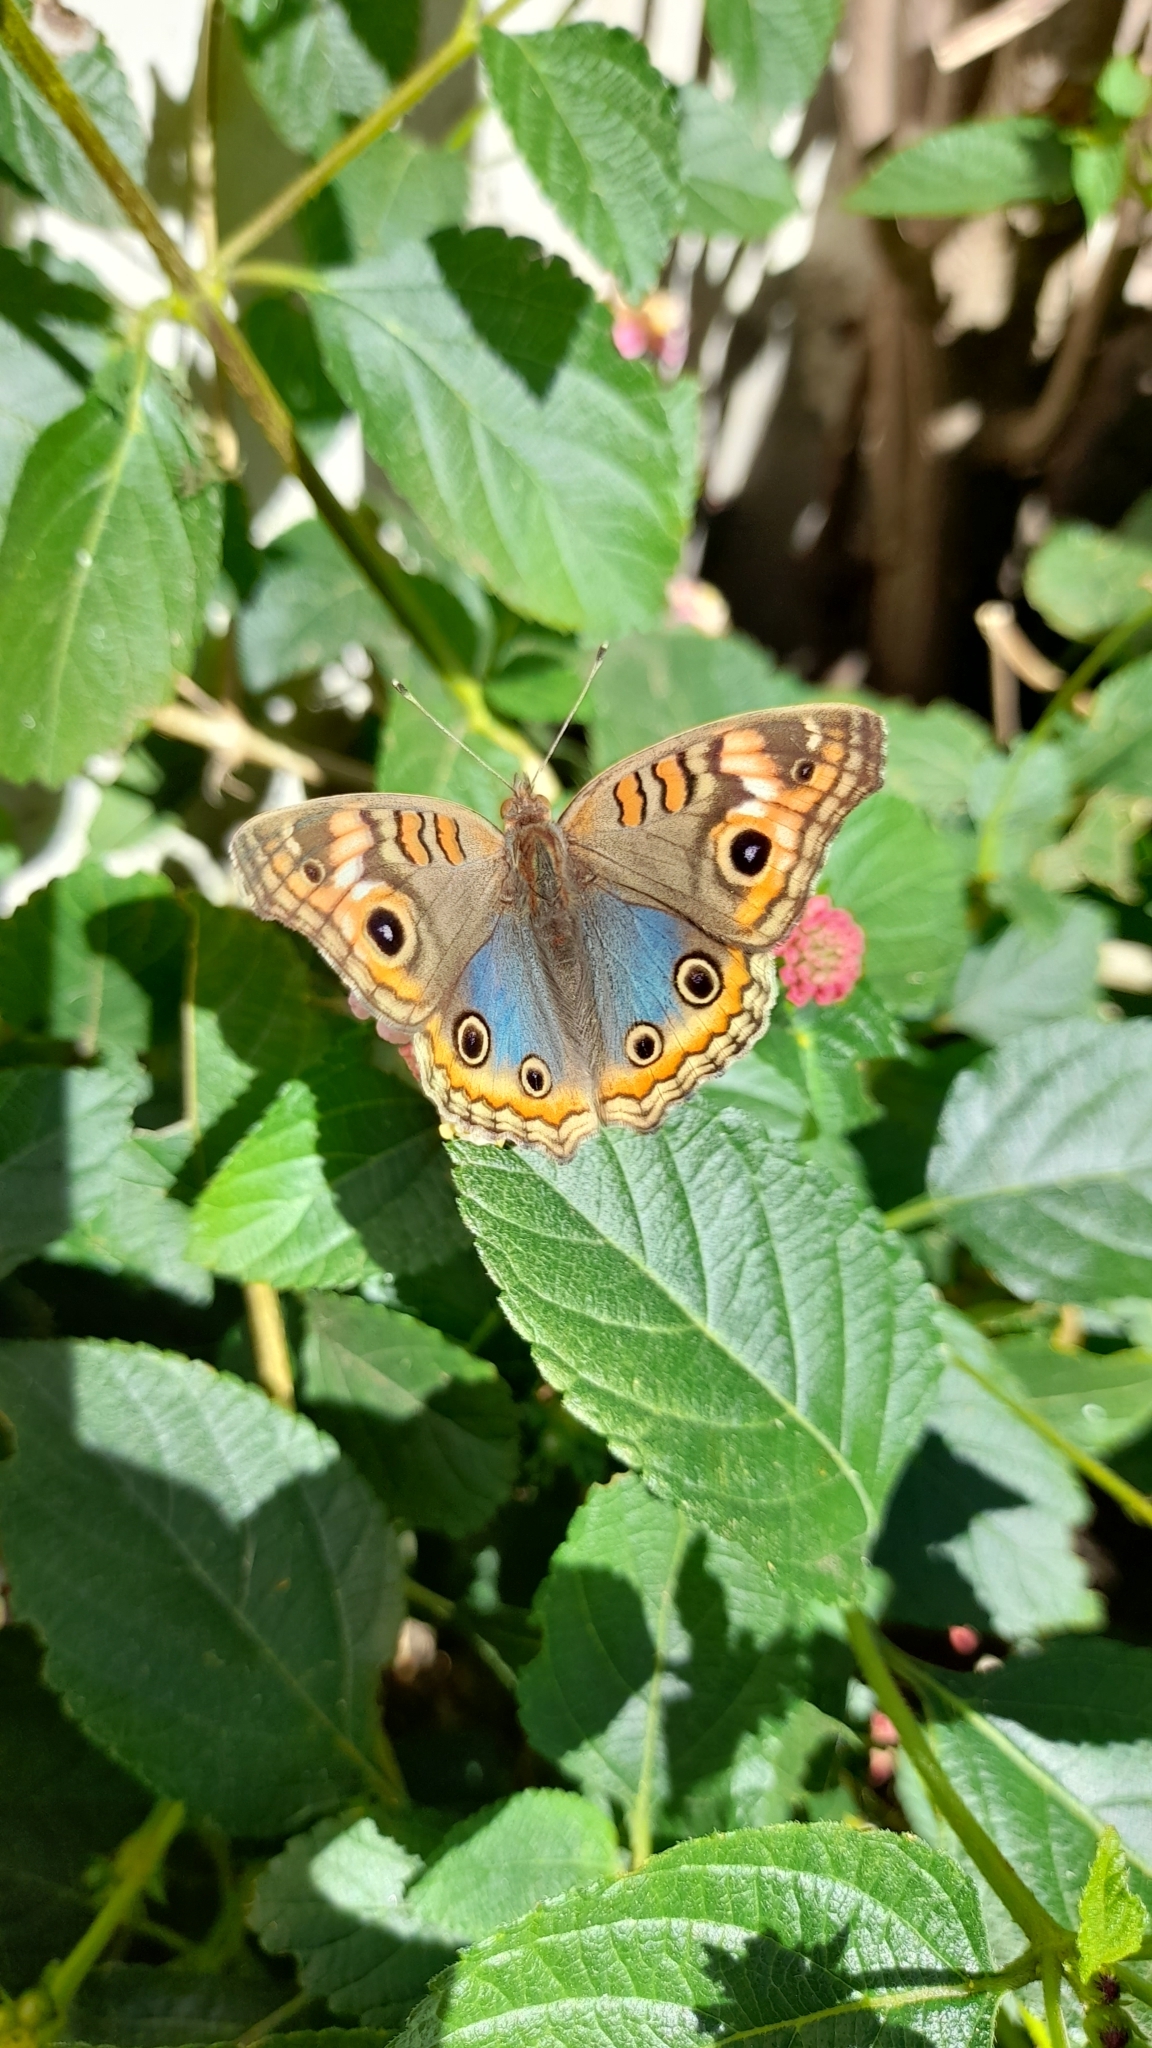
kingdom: Animalia
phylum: Arthropoda
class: Insecta
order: Lepidoptera
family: Nymphalidae
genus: Junonia
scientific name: Junonia lavinia
